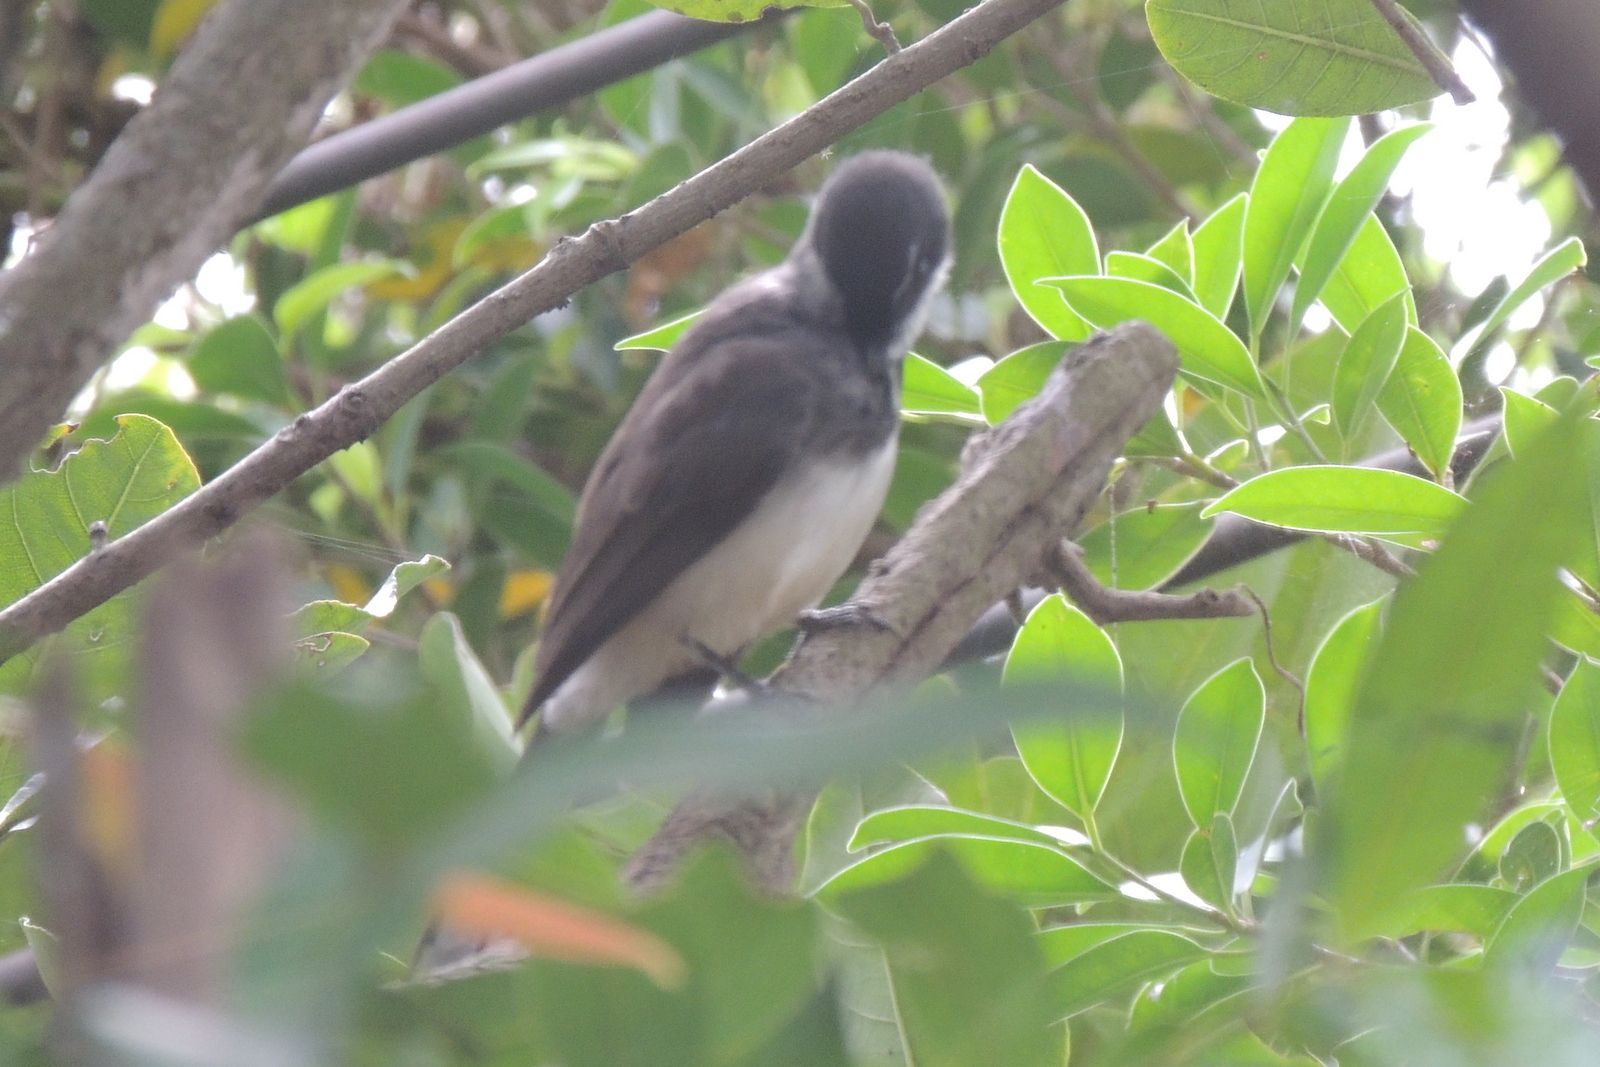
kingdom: Animalia
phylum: Chordata
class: Aves
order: Passeriformes
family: Rhipiduridae
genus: Rhipidura
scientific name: Rhipidura javanica
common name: Pied fantail
